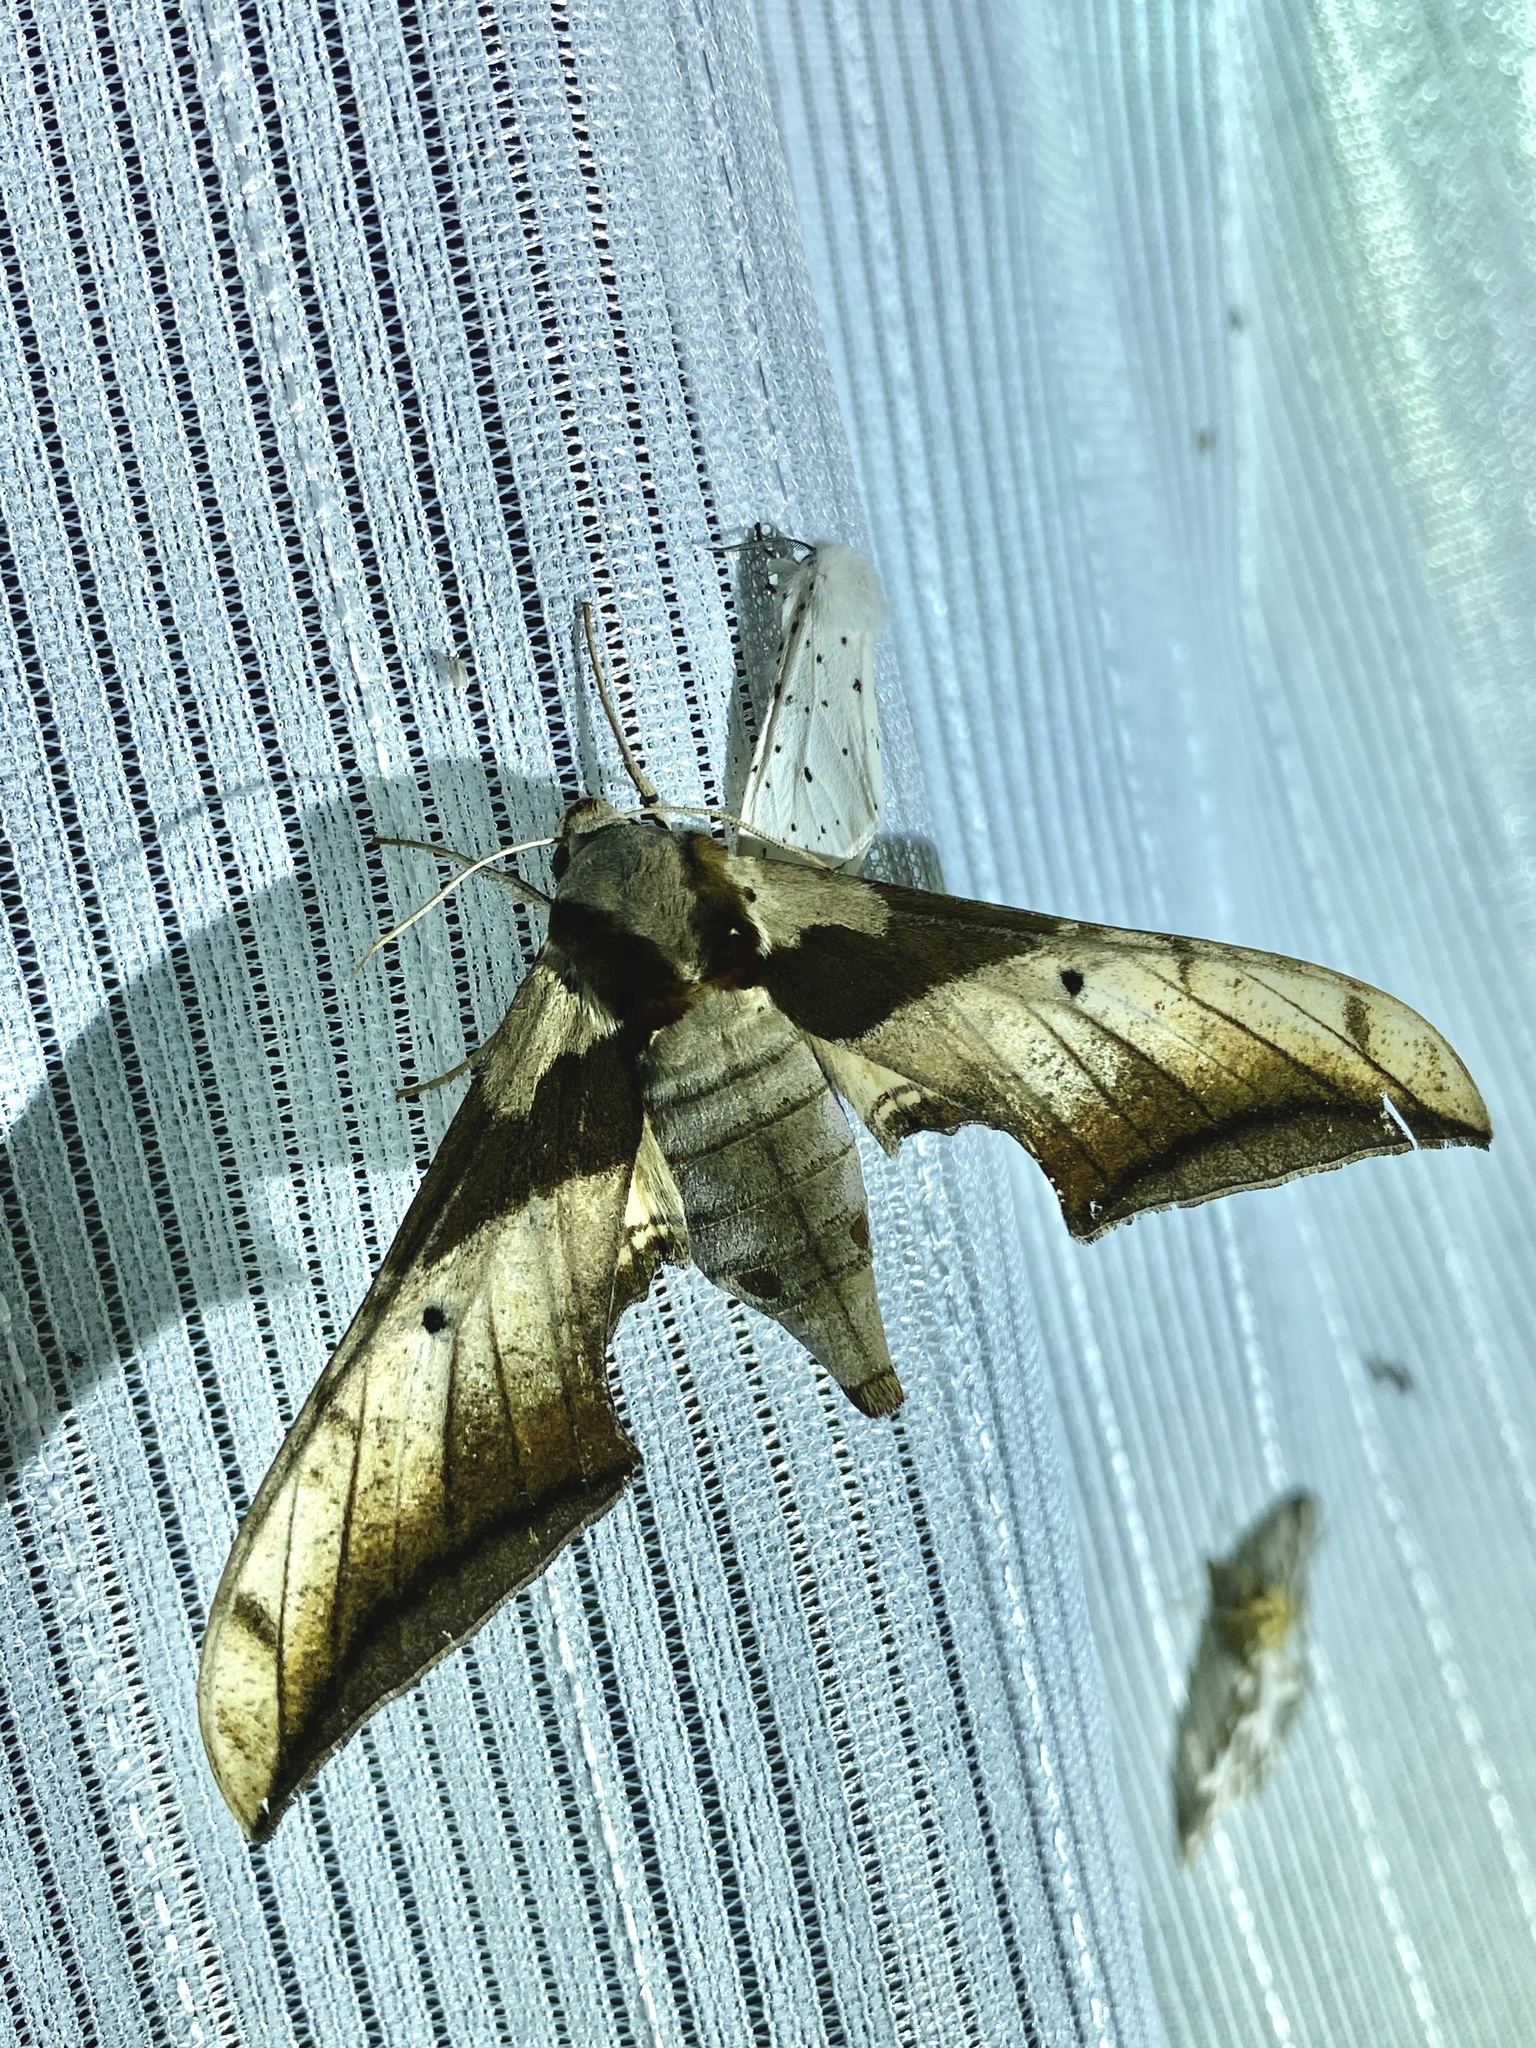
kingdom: Animalia
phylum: Arthropoda
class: Insecta
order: Lepidoptera
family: Sphingidae
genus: Ambulyx
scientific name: Ambulyx japonica
